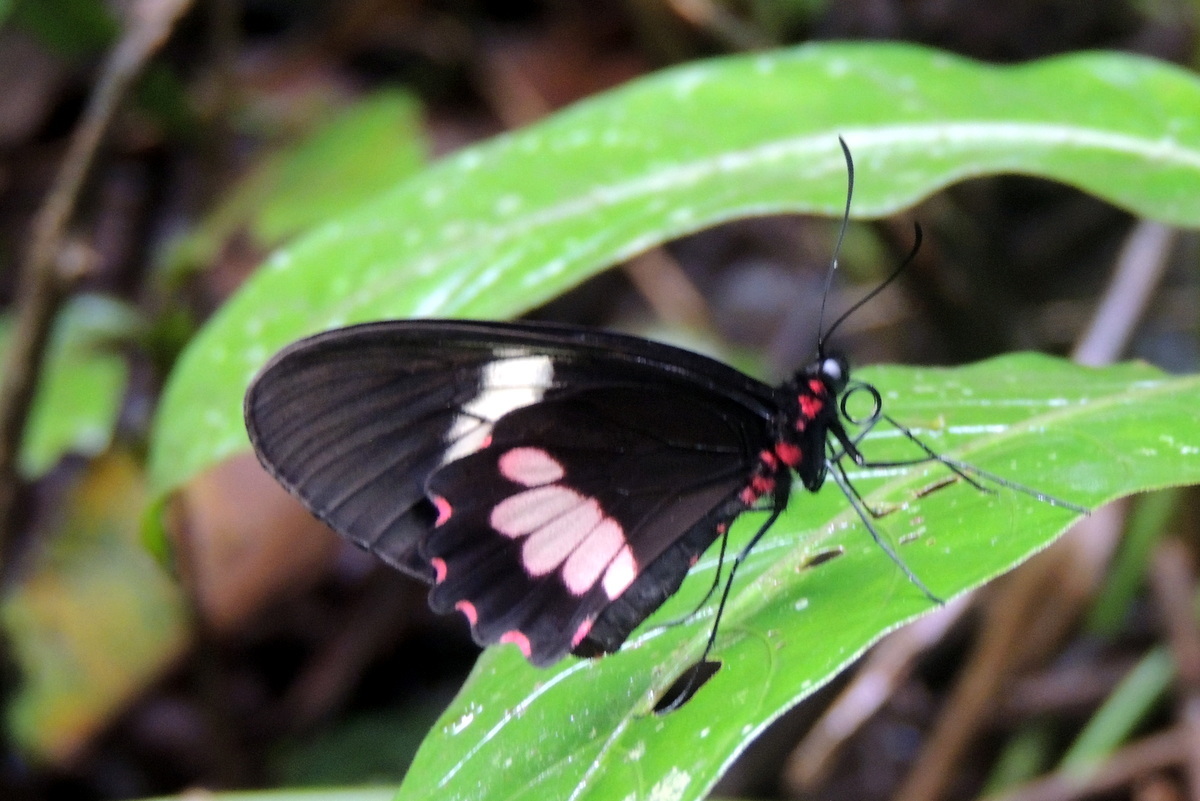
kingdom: Animalia
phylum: Arthropoda
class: Insecta
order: Lepidoptera
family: Papilionidae
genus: Parides
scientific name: Parides eurimedes
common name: True cattleheart
